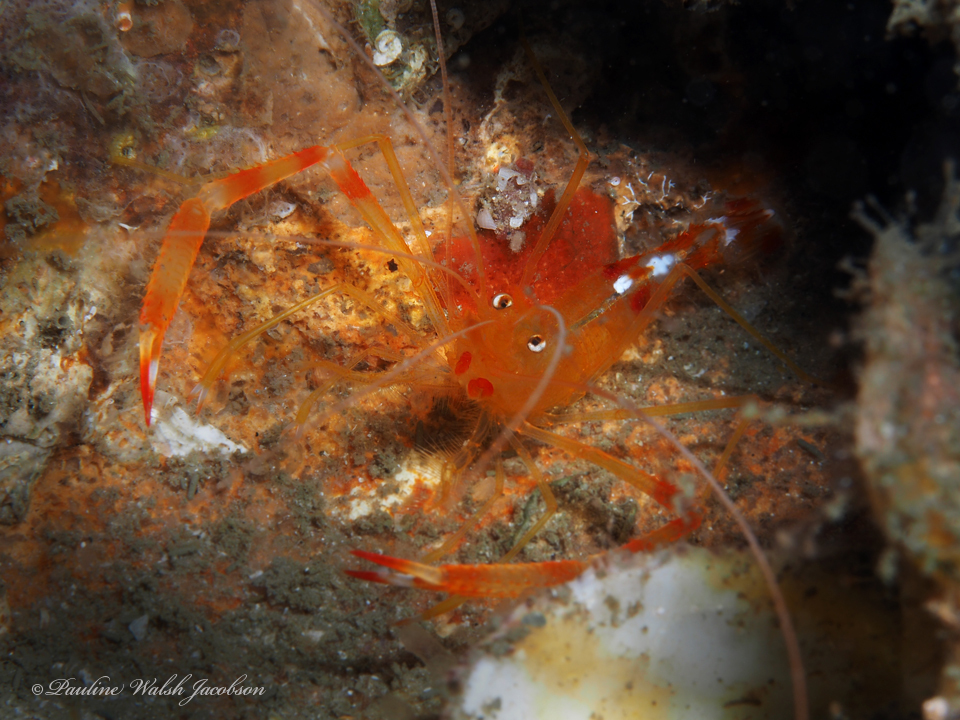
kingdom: Animalia
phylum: Arthropoda
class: Malacostraca
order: Decapoda
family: Stenopodidae
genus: Stenopus
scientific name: Stenopus scutellatus
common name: Golden coral shrimp
